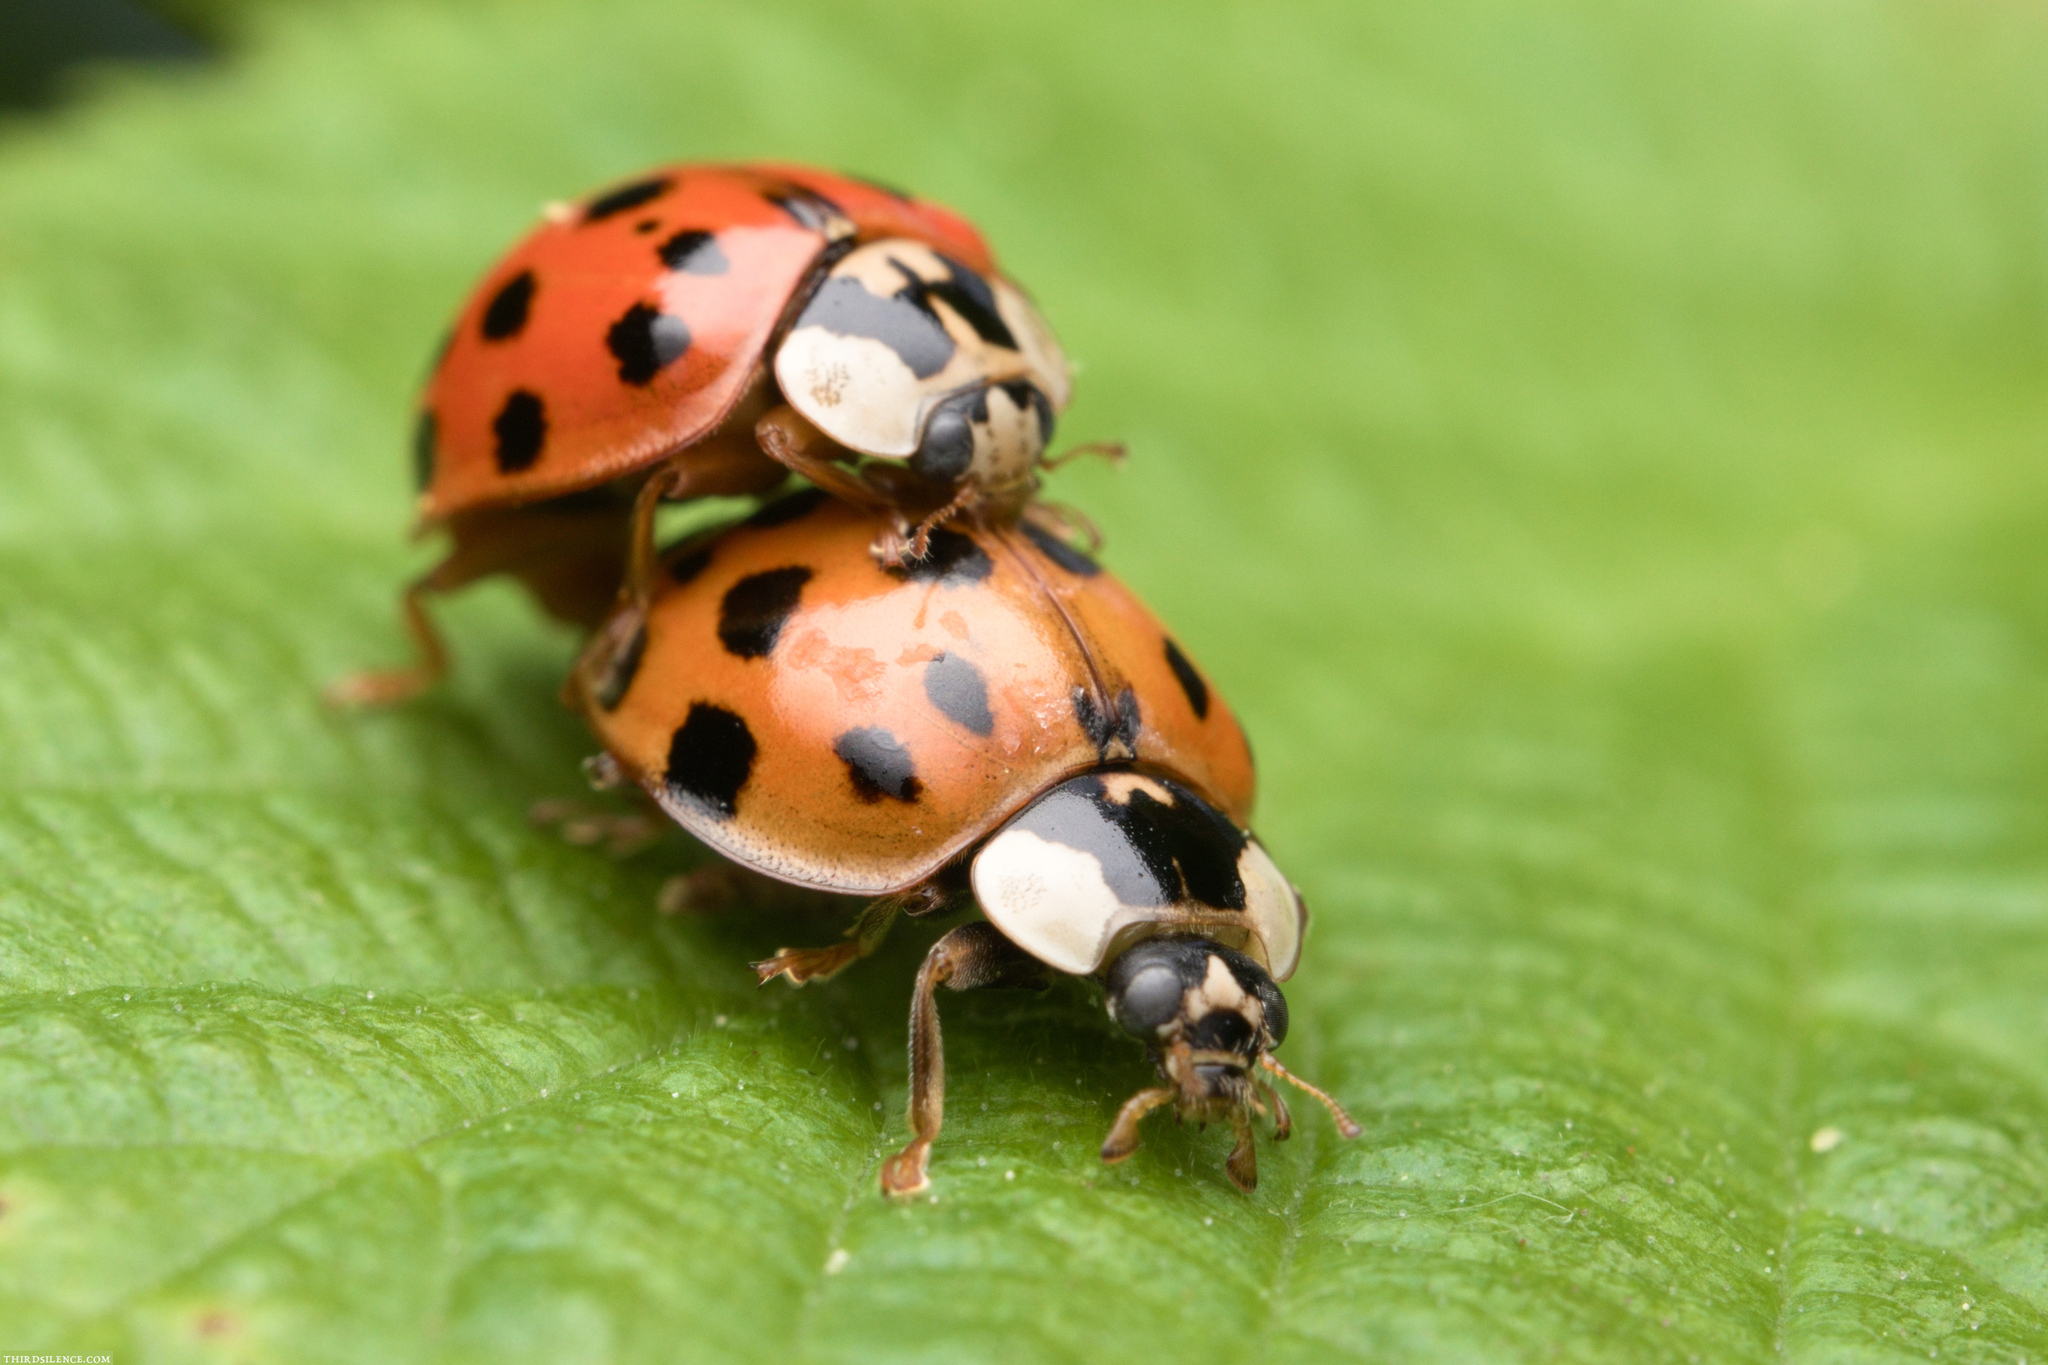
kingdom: Animalia
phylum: Arthropoda
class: Insecta
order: Coleoptera
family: Coccinellidae
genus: Harmonia
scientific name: Harmonia axyridis
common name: Harlequin ladybird
